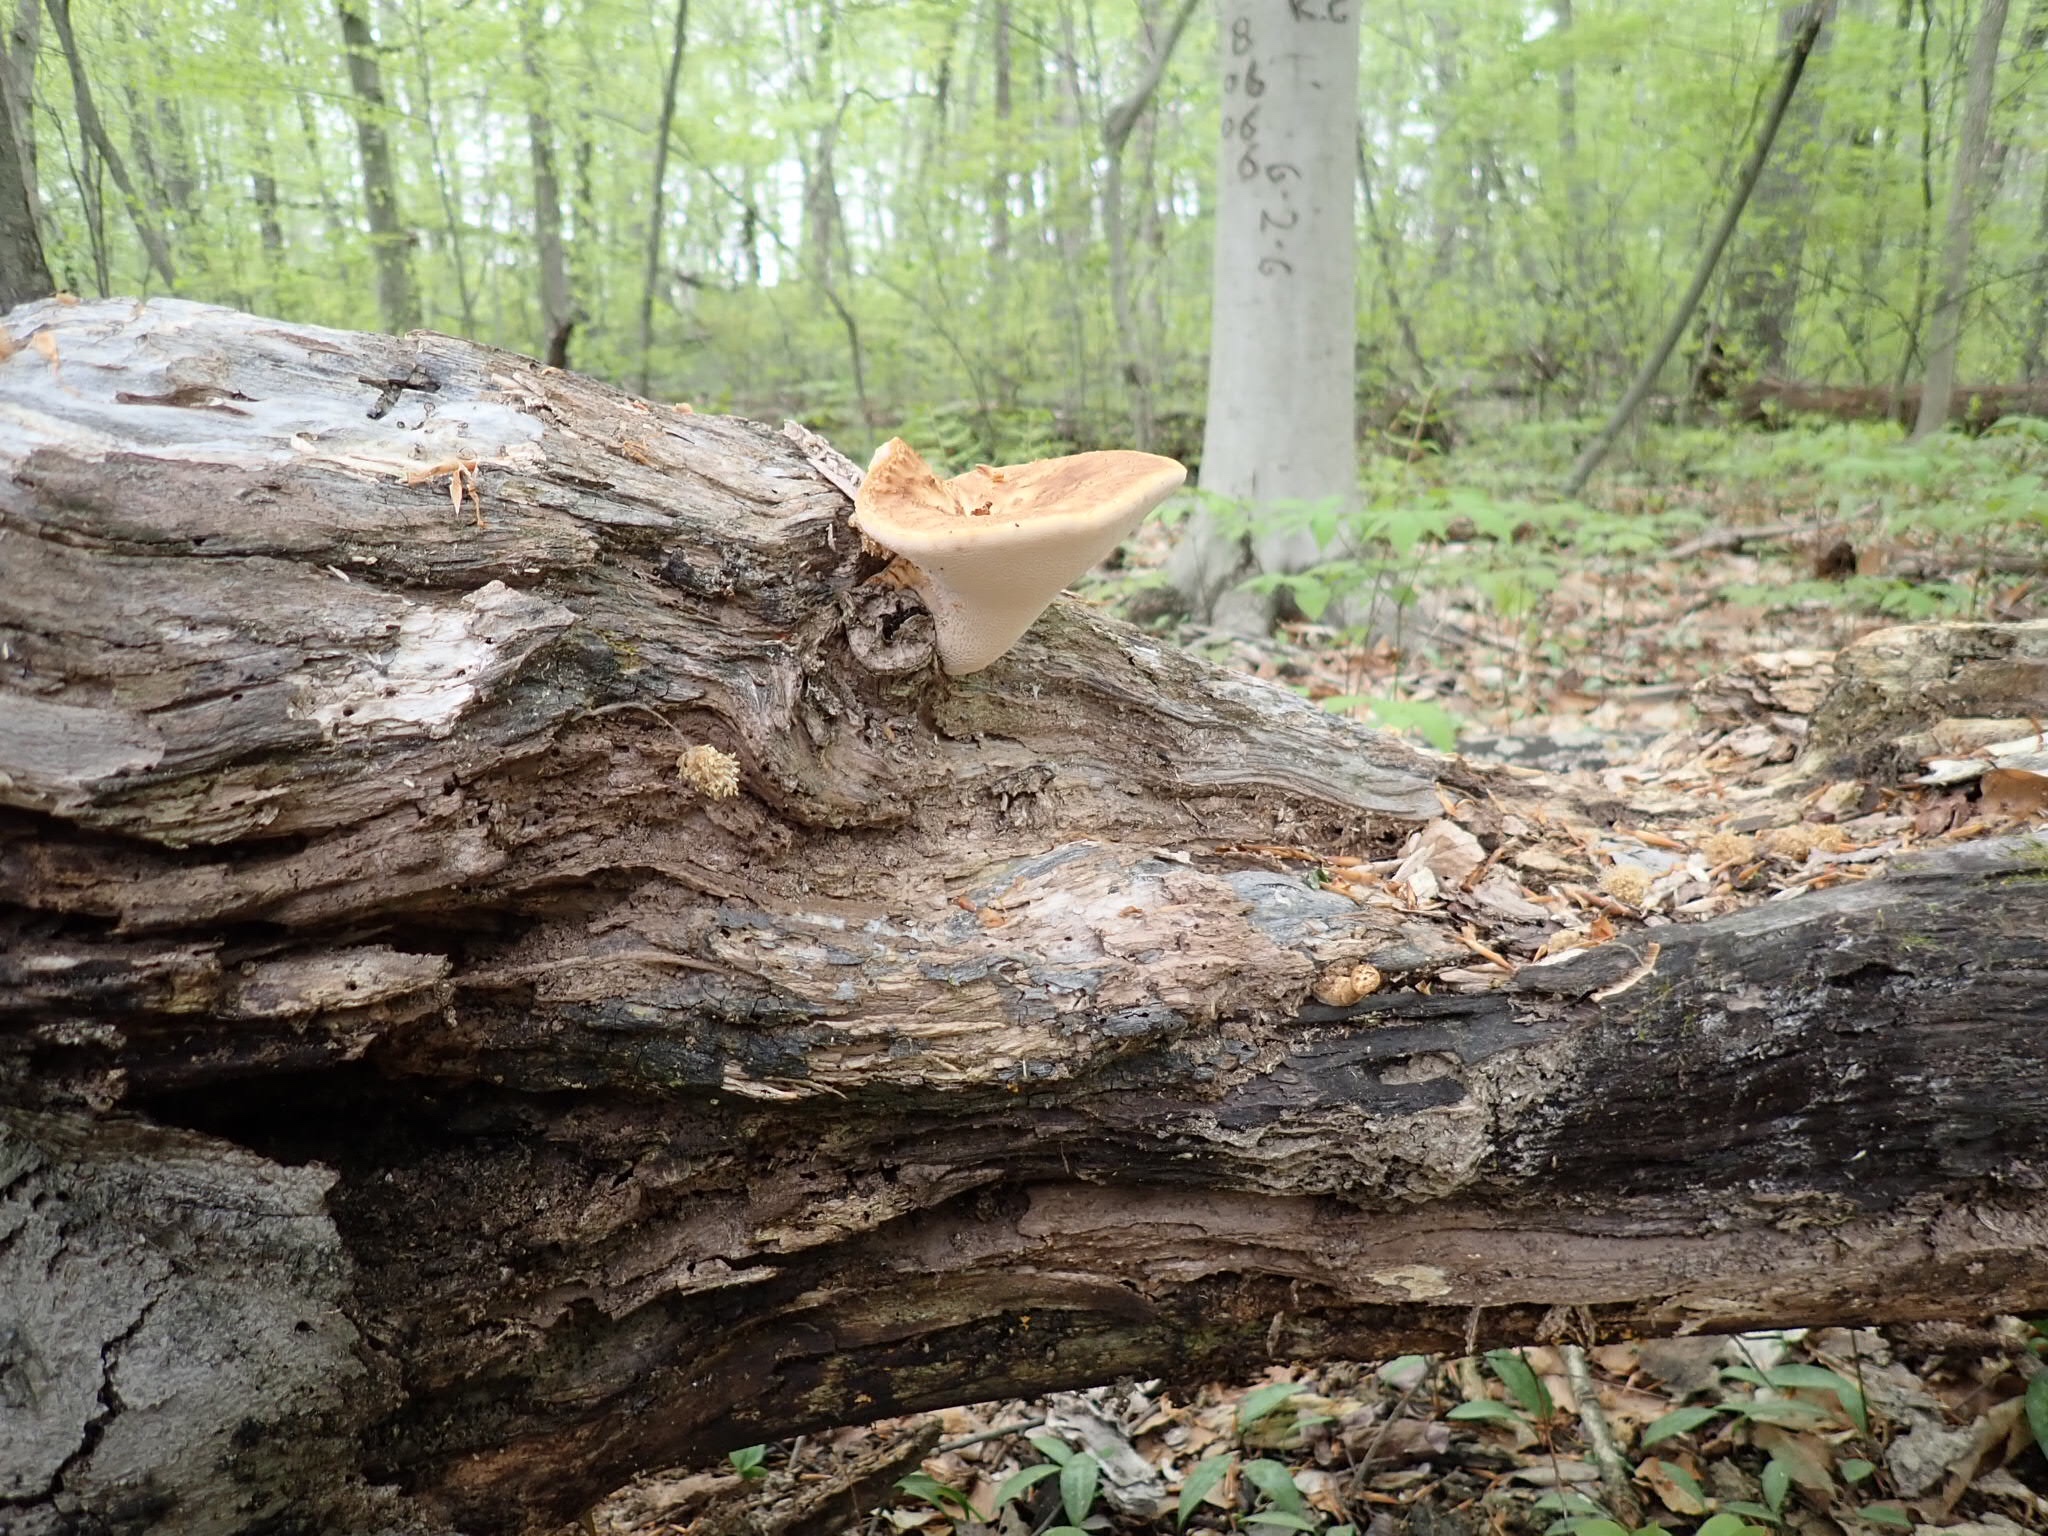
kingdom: Fungi
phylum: Basidiomycota
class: Agaricomycetes
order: Polyporales
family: Polyporaceae
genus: Cerioporus
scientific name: Cerioporus squamosus
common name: Dryad's saddle
